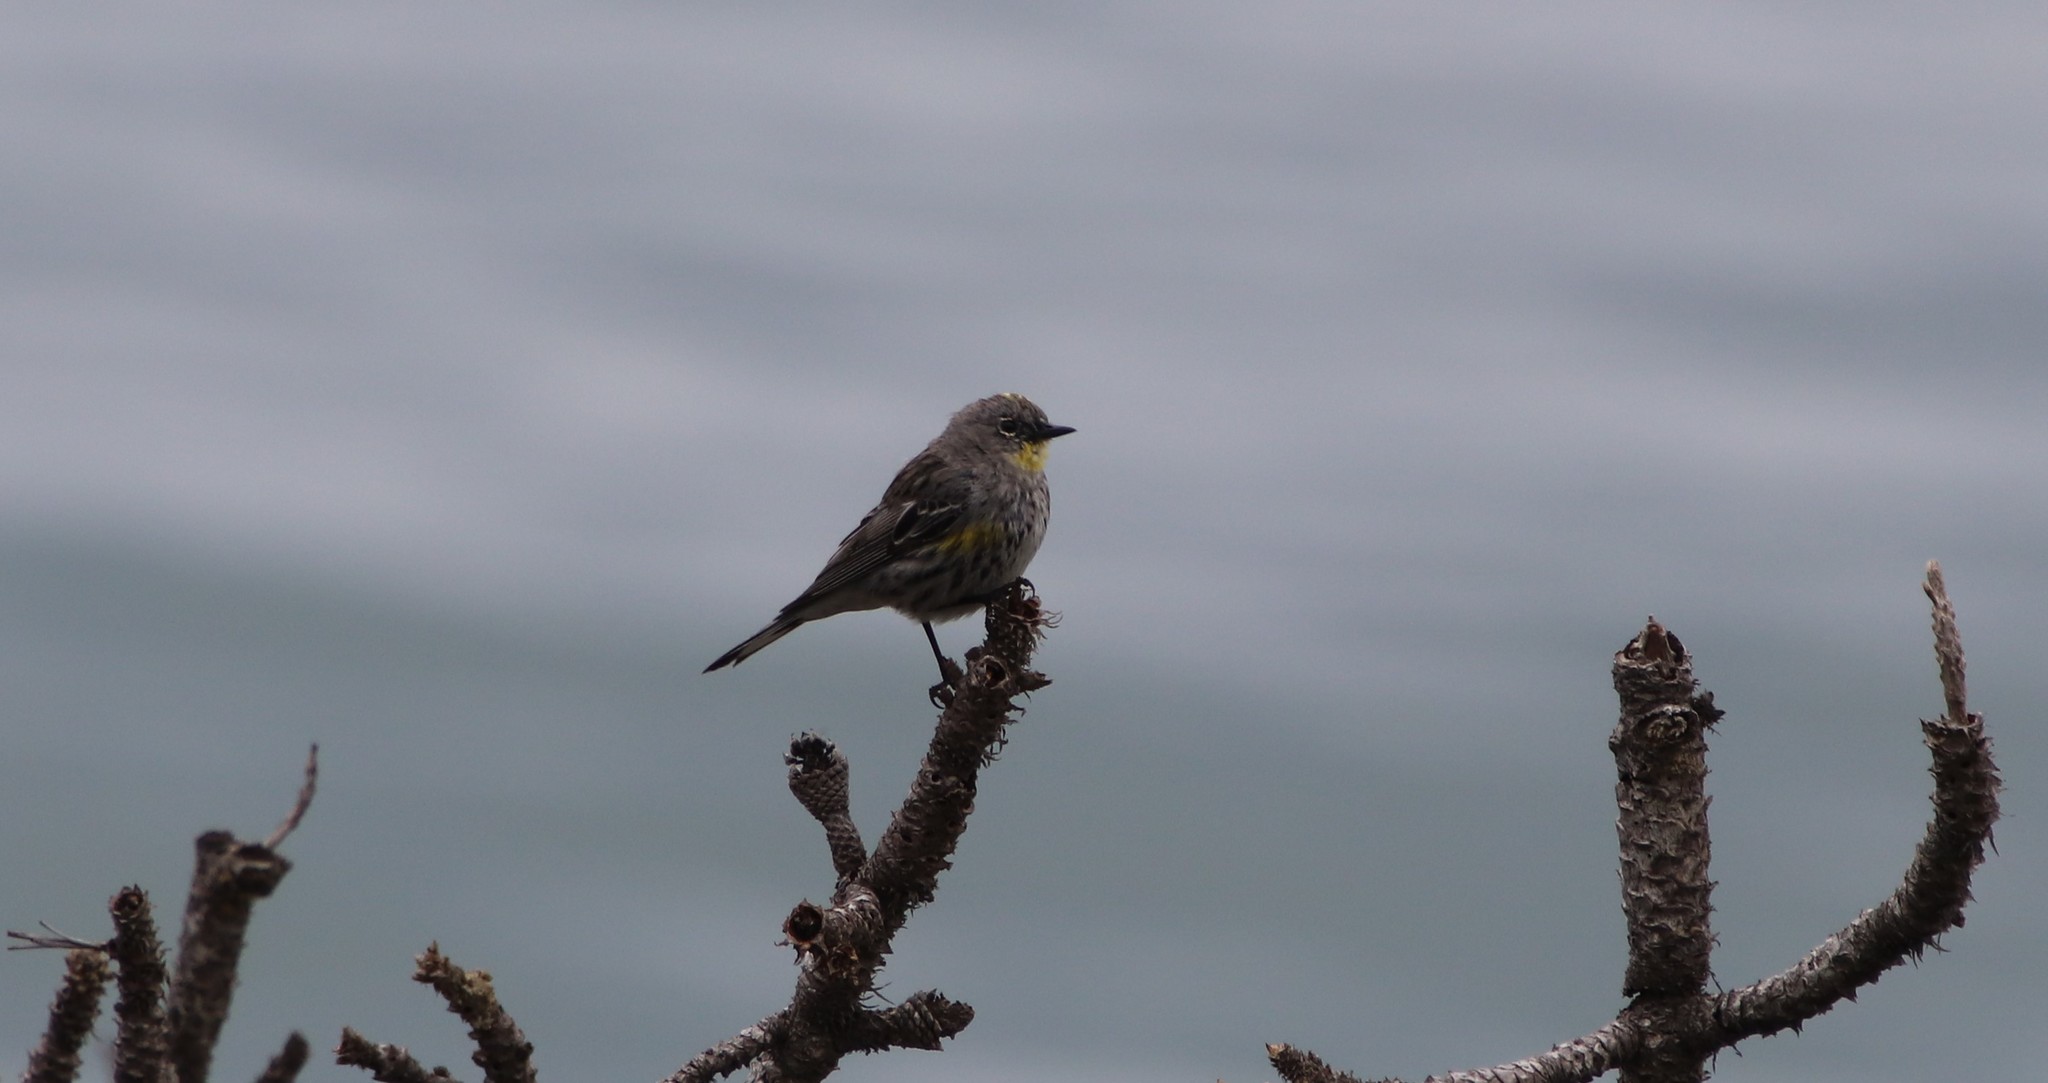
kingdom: Animalia
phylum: Chordata
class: Aves
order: Passeriformes
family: Parulidae
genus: Setophaga
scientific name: Setophaga auduboni
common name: Audubon's warbler
